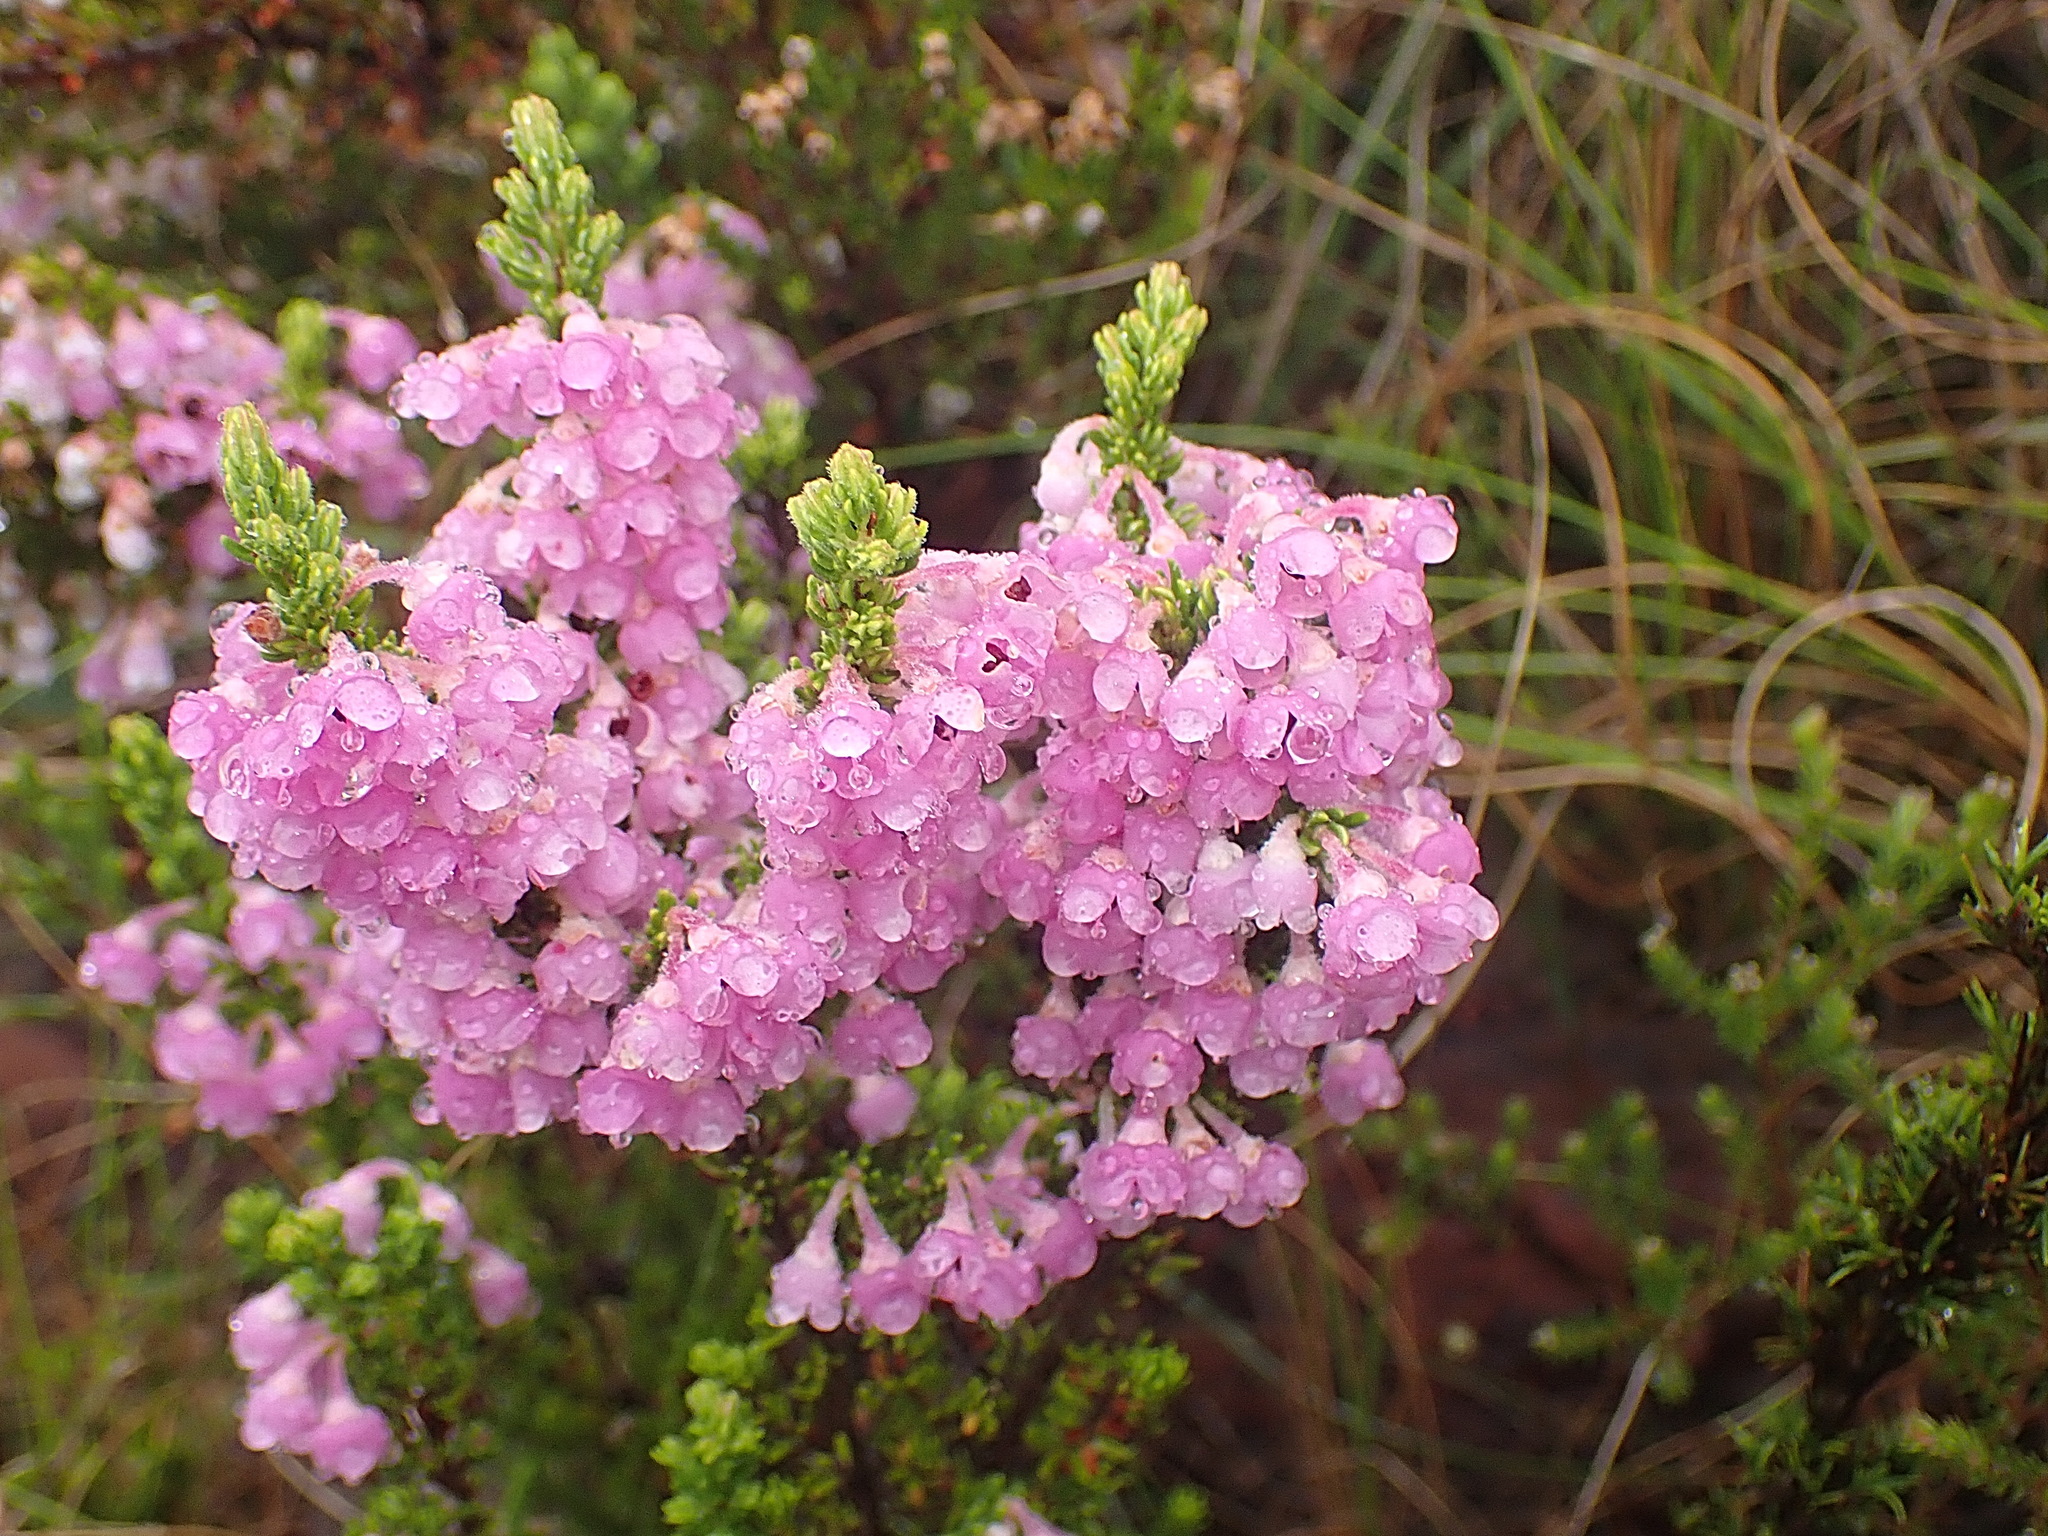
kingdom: Plantae
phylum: Tracheophyta
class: Magnoliopsida
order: Ericales
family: Ericaceae
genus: Erica
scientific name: Erica chamissonis
